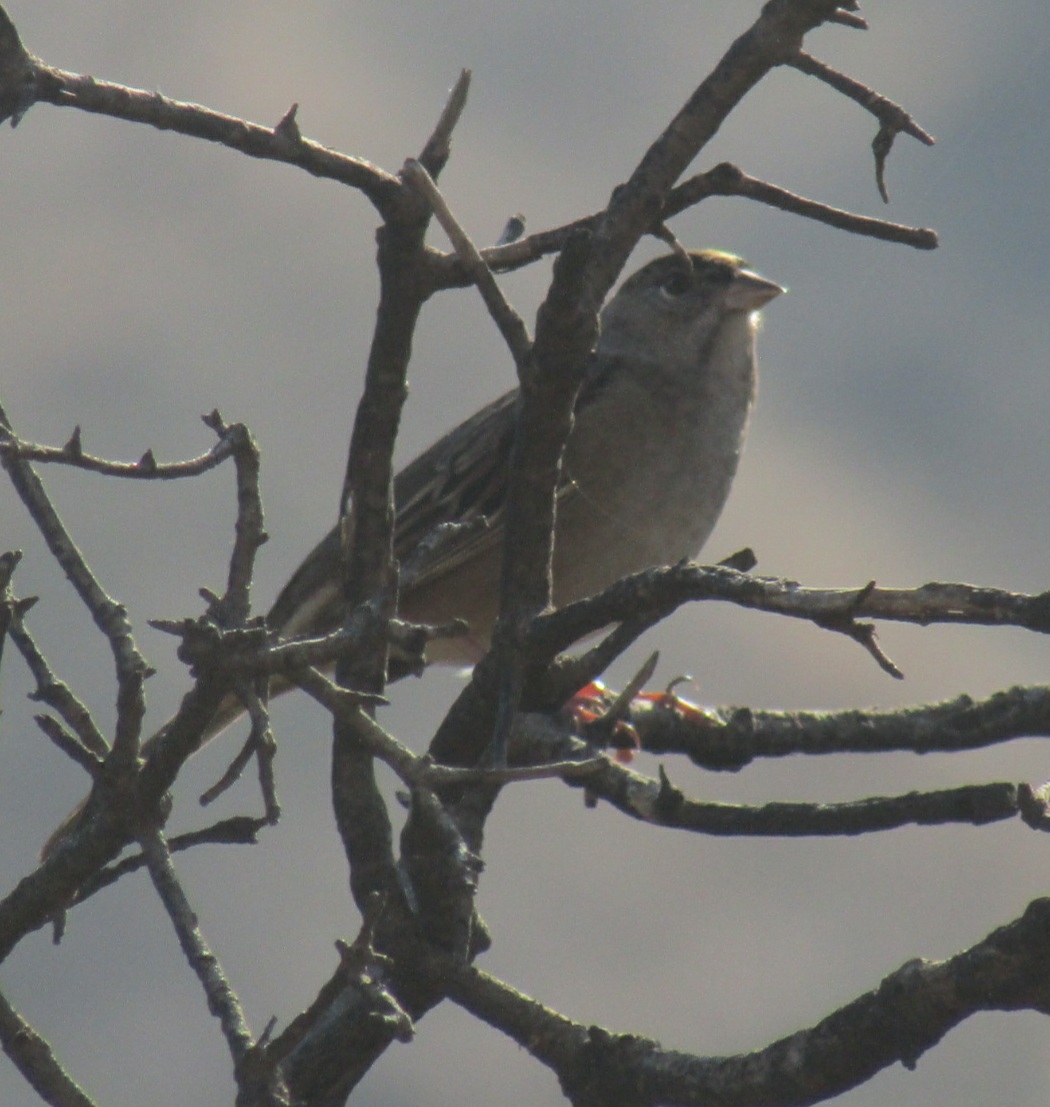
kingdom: Animalia
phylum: Chordata
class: Aves
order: Passeriformes
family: Passerellidae
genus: Zonotrichia
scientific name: Zonotrichia atricapilla
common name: Golden-crowned sparrow
